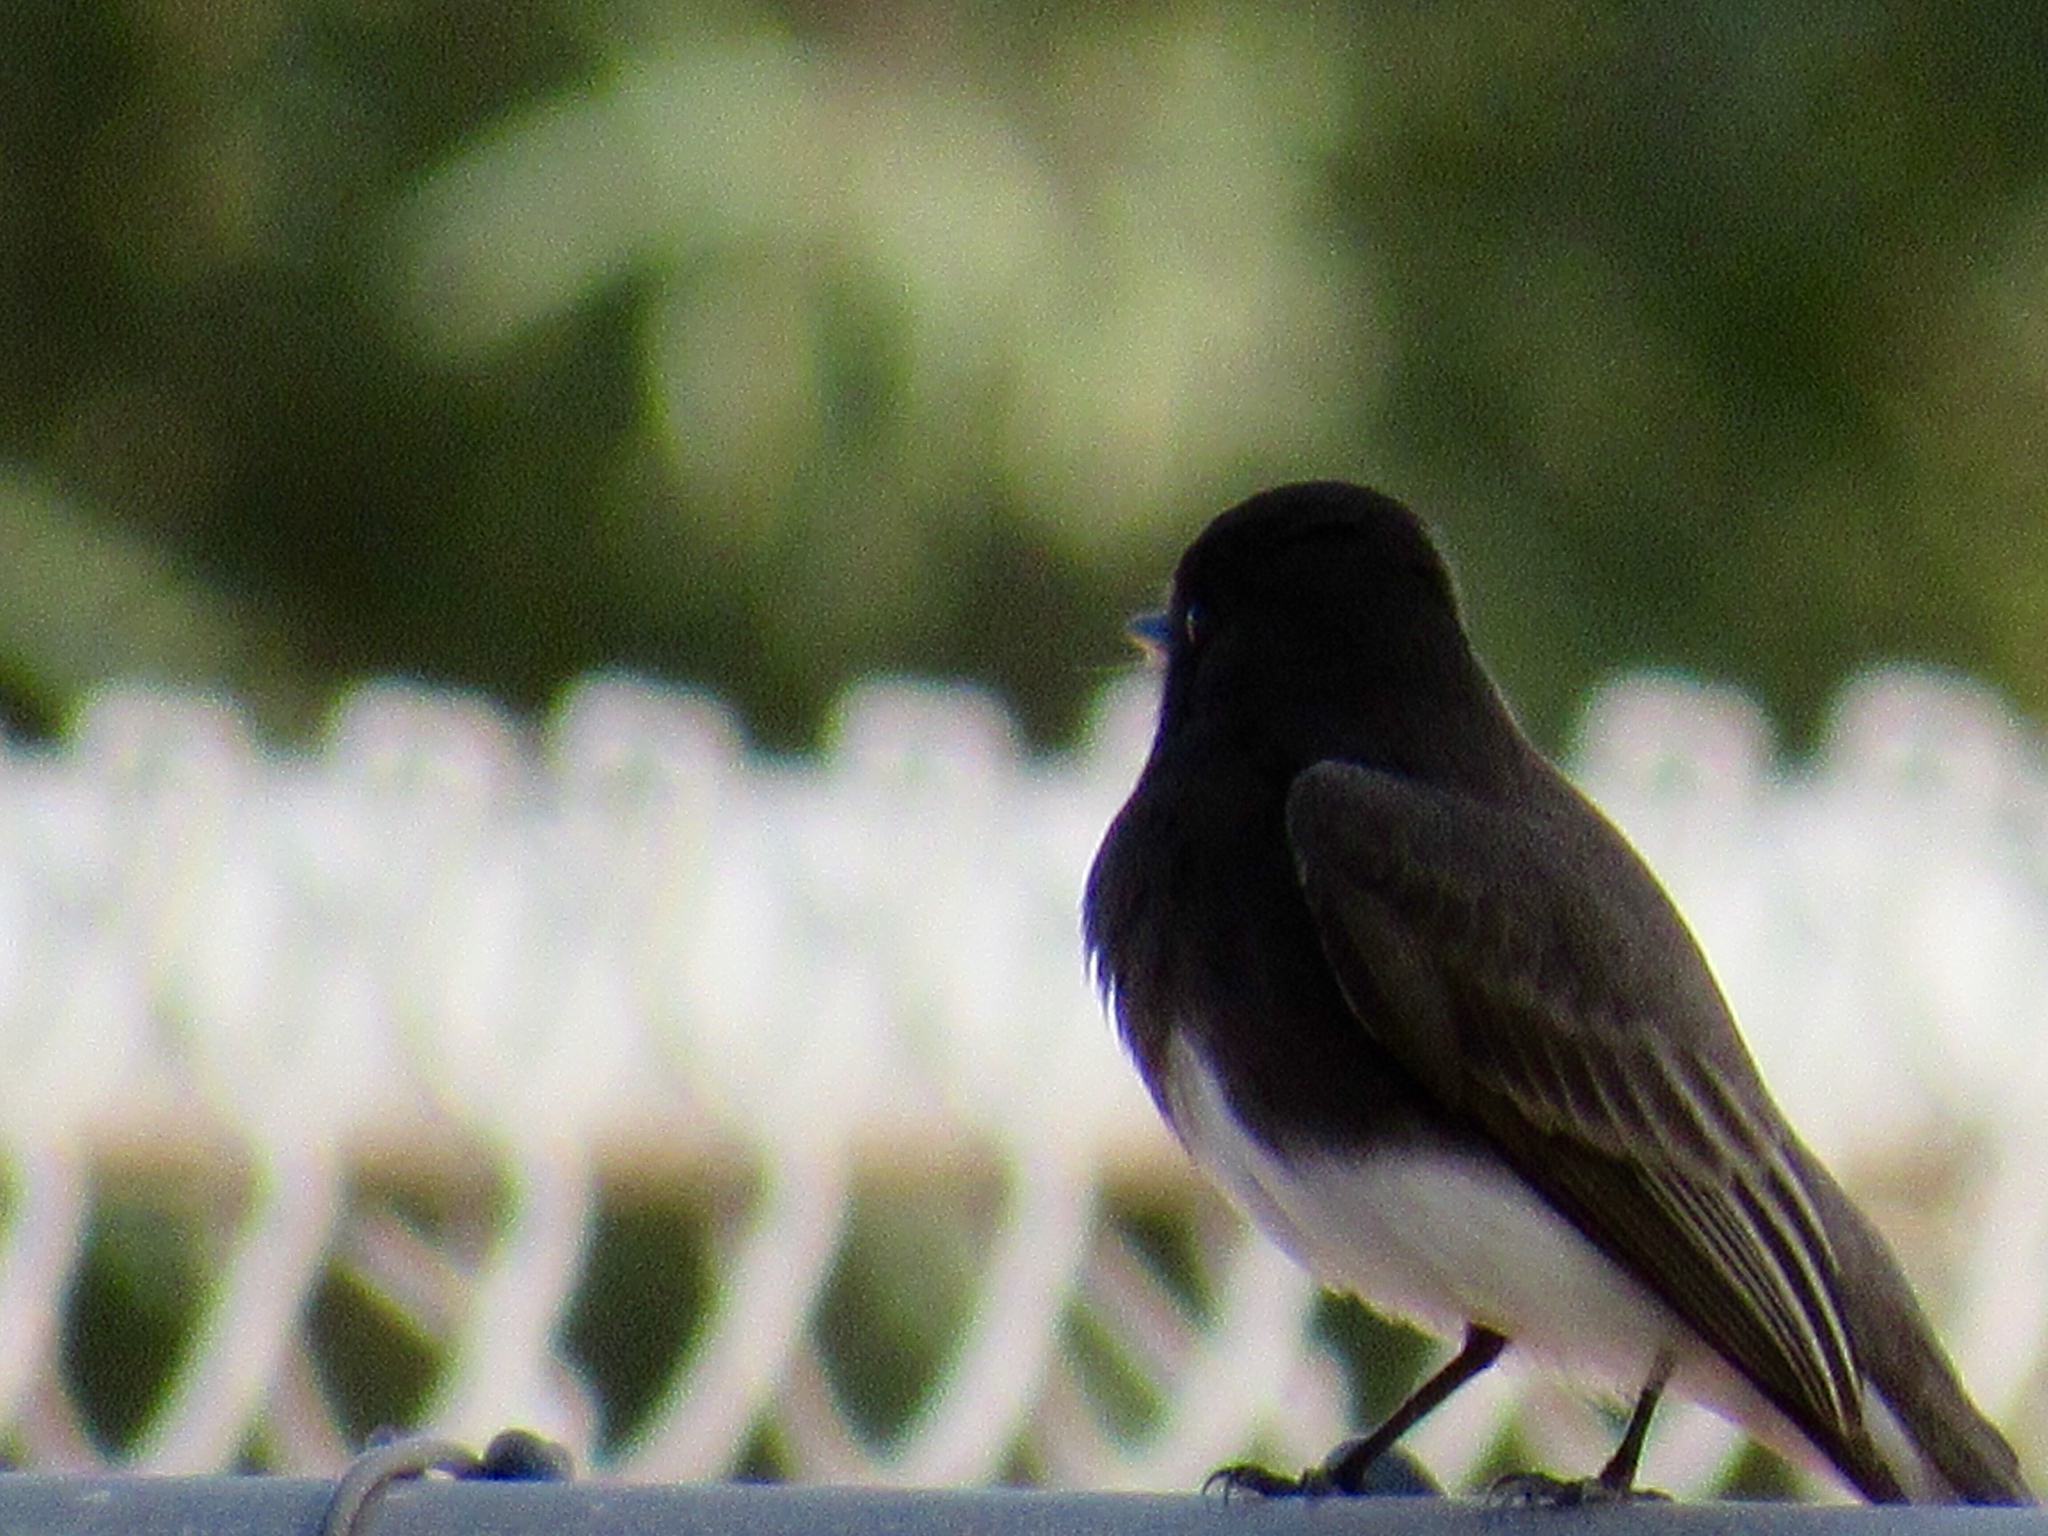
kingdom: Animalia
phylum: Chordata
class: Aves
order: Passeriformes
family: Tyrannidae
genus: Sayornis
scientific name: Sayornis nigricans
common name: Black phoebe
